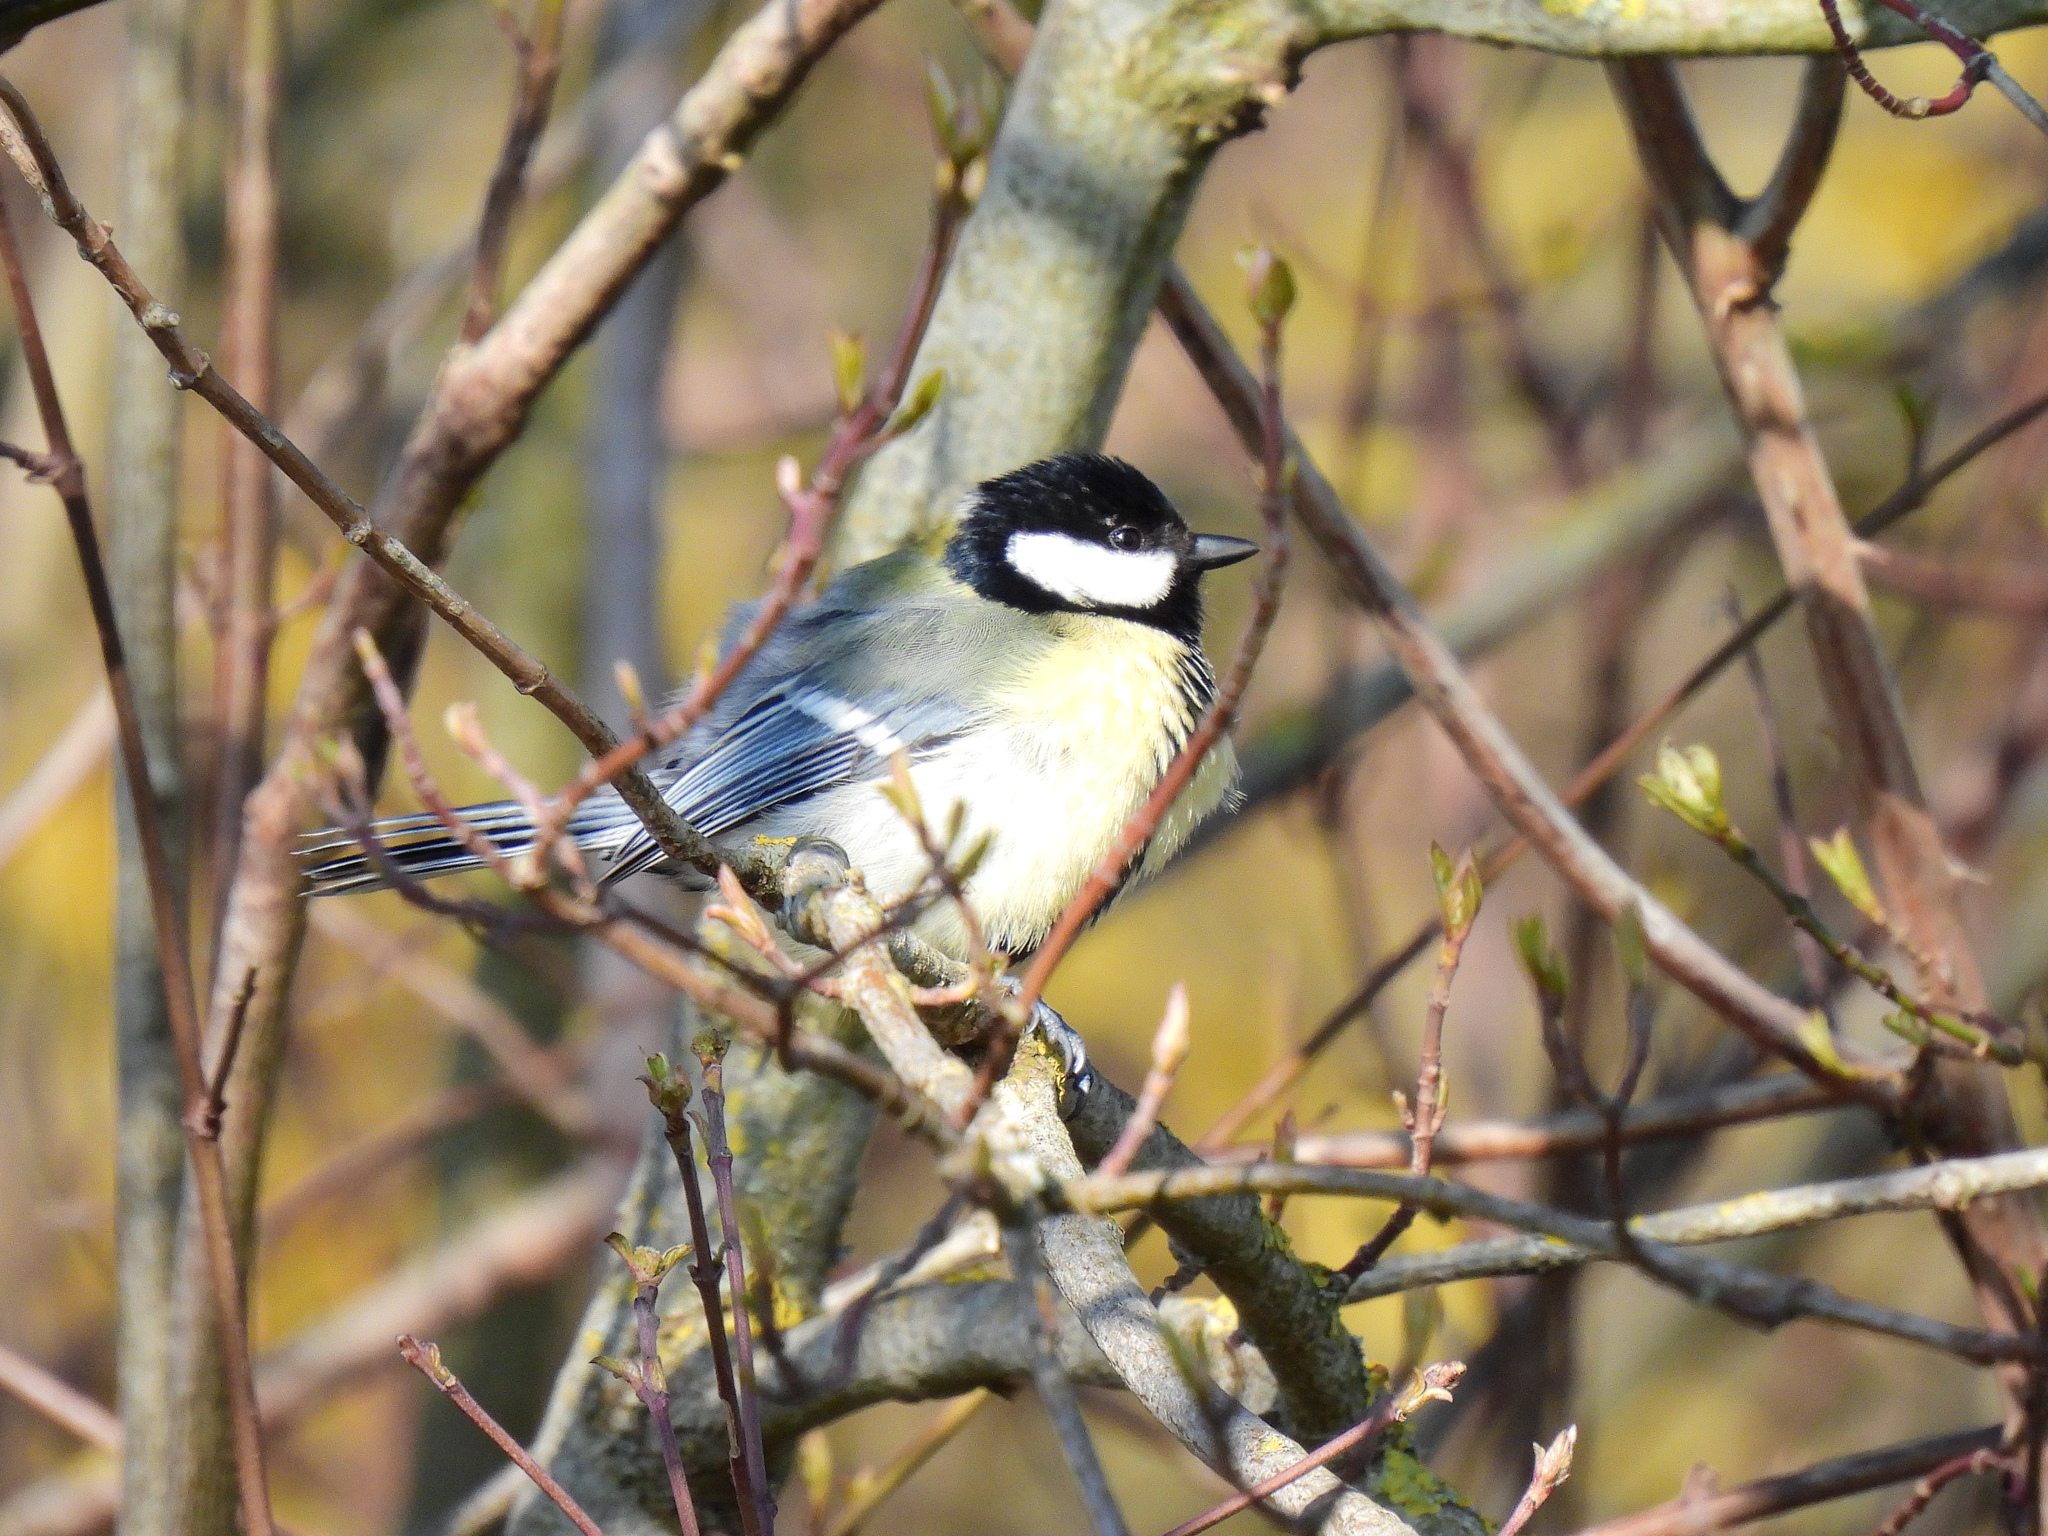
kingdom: Animalia
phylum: Chordata
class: Aves
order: Passeriformes
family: Paridae
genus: Parus
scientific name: Parus major
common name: Great tit
